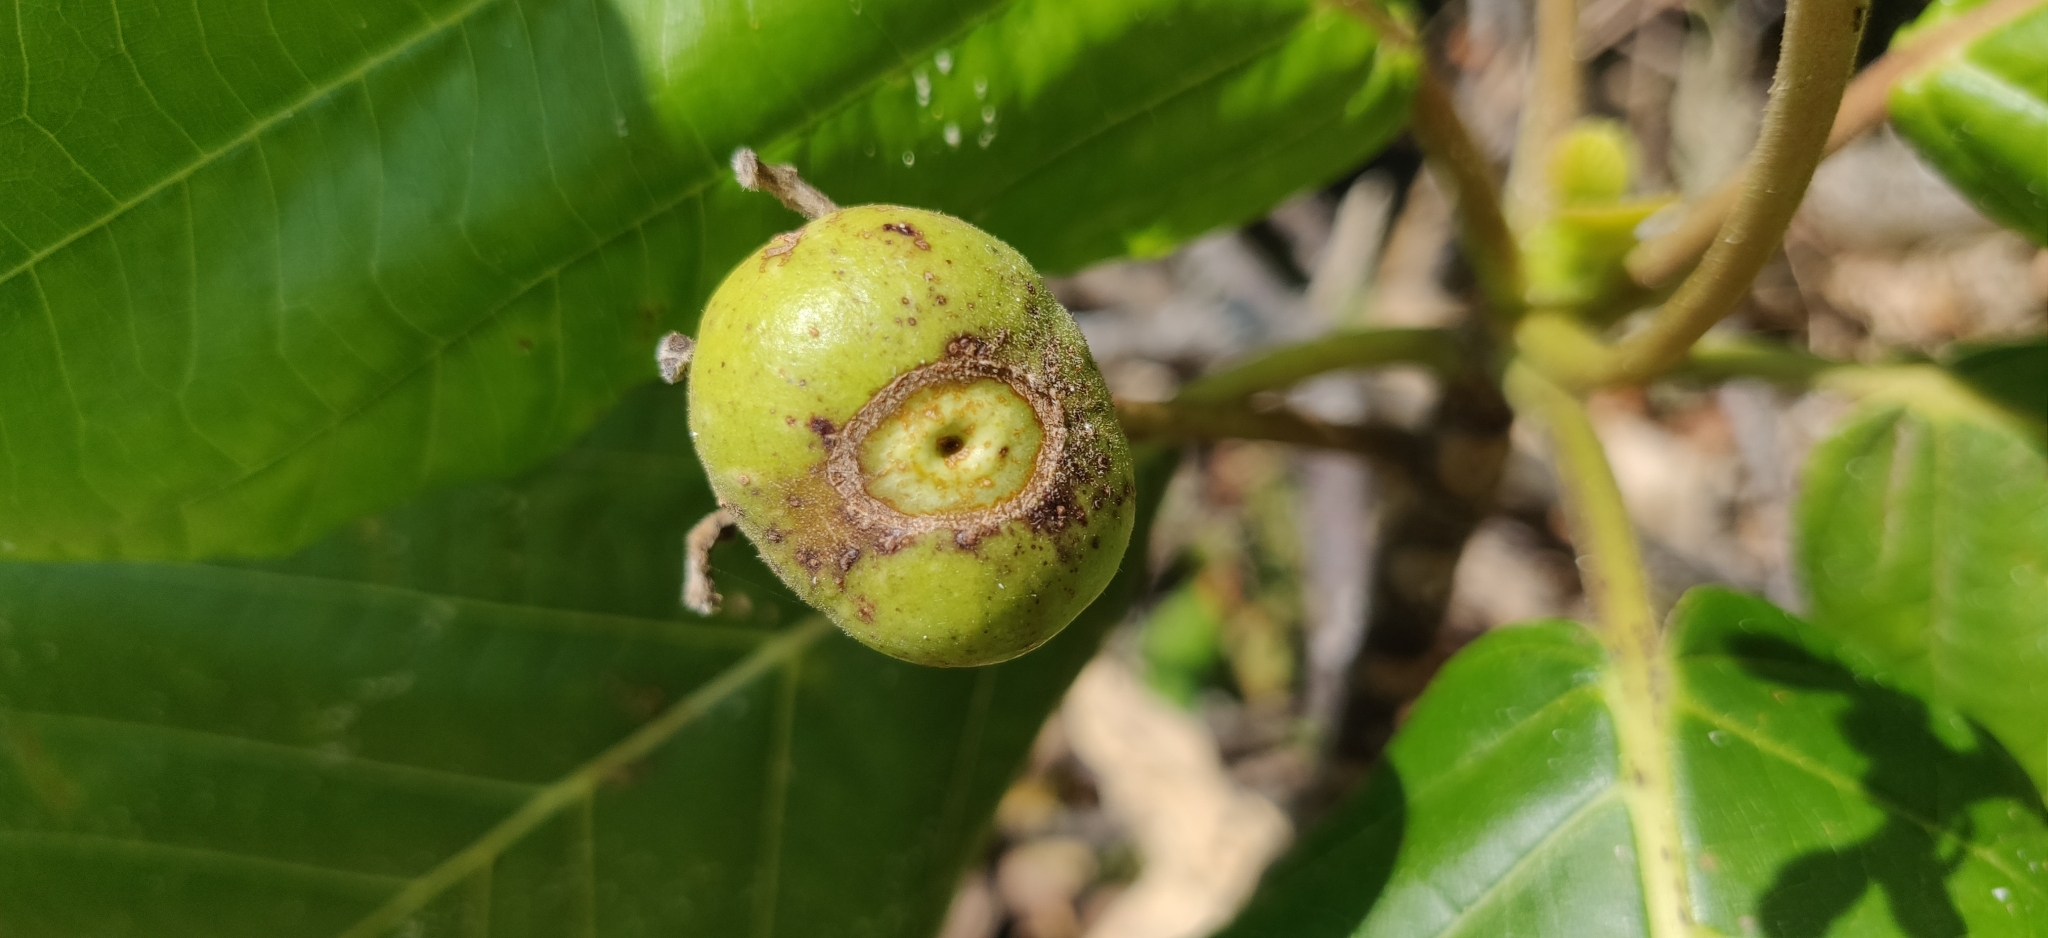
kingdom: Plantae
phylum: Tracheophyta
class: Magnoliopsida
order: Gentianales
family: Rubiaceae
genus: Guettarda
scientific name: Guettarda speciosa
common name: Sea randa
